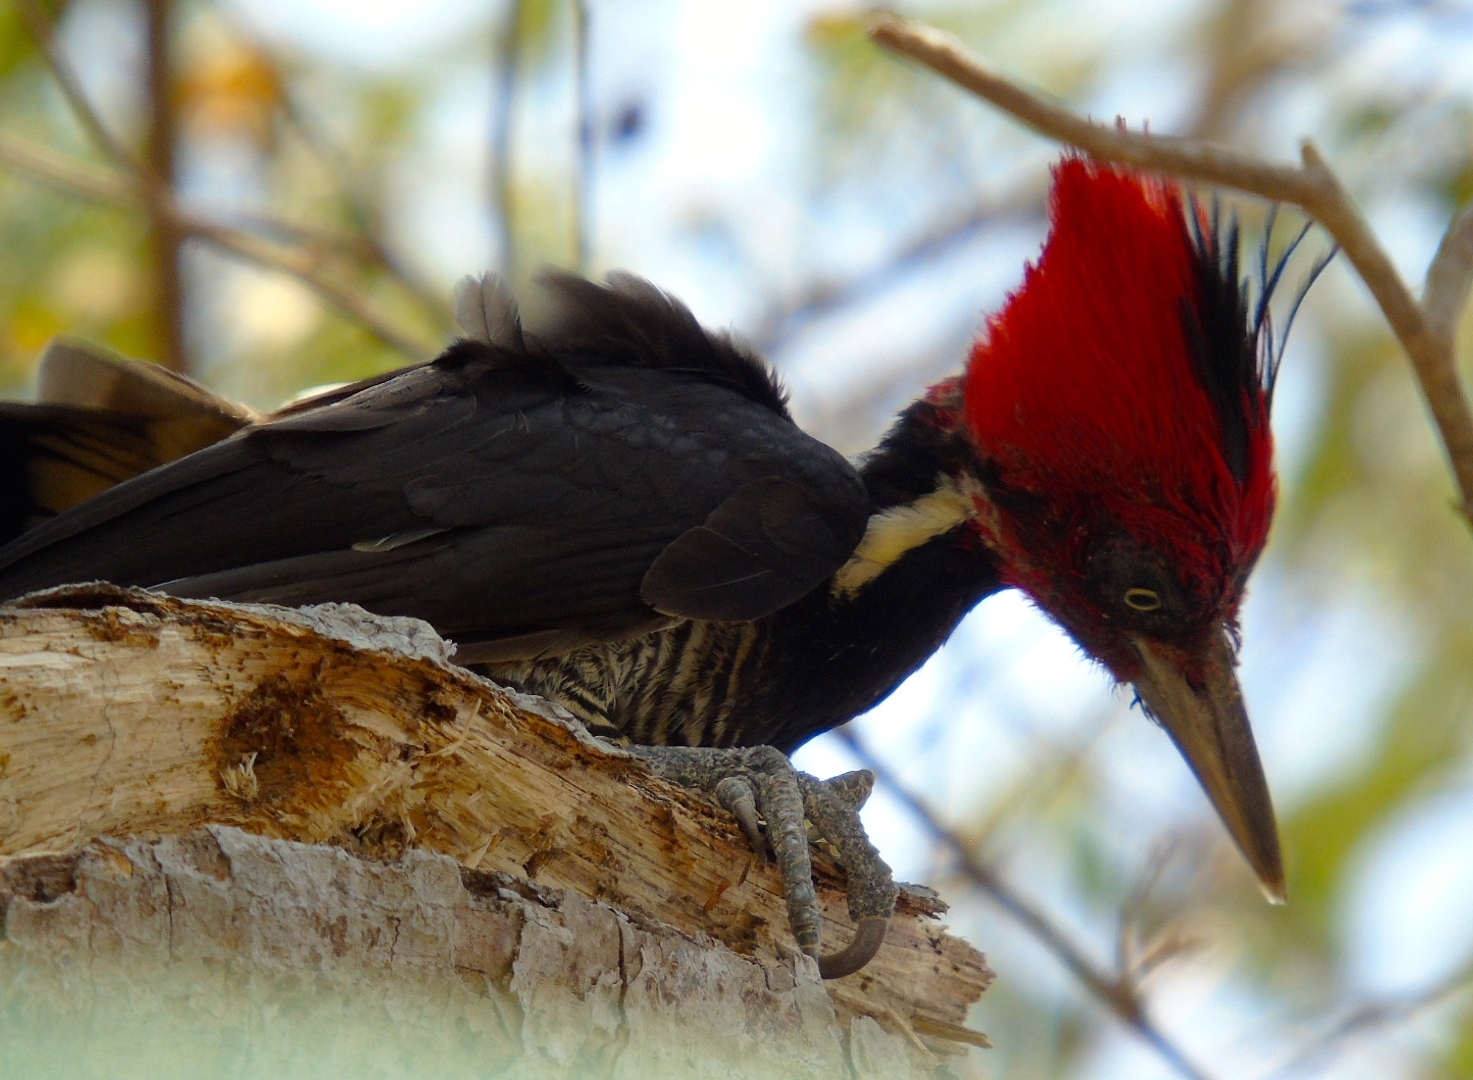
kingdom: Animalia
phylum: Chordata
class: Aves
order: Piciformes
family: Picidae
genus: Campephilus
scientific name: Campephilus guatemalensis
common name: Pale-billed woodpecker
